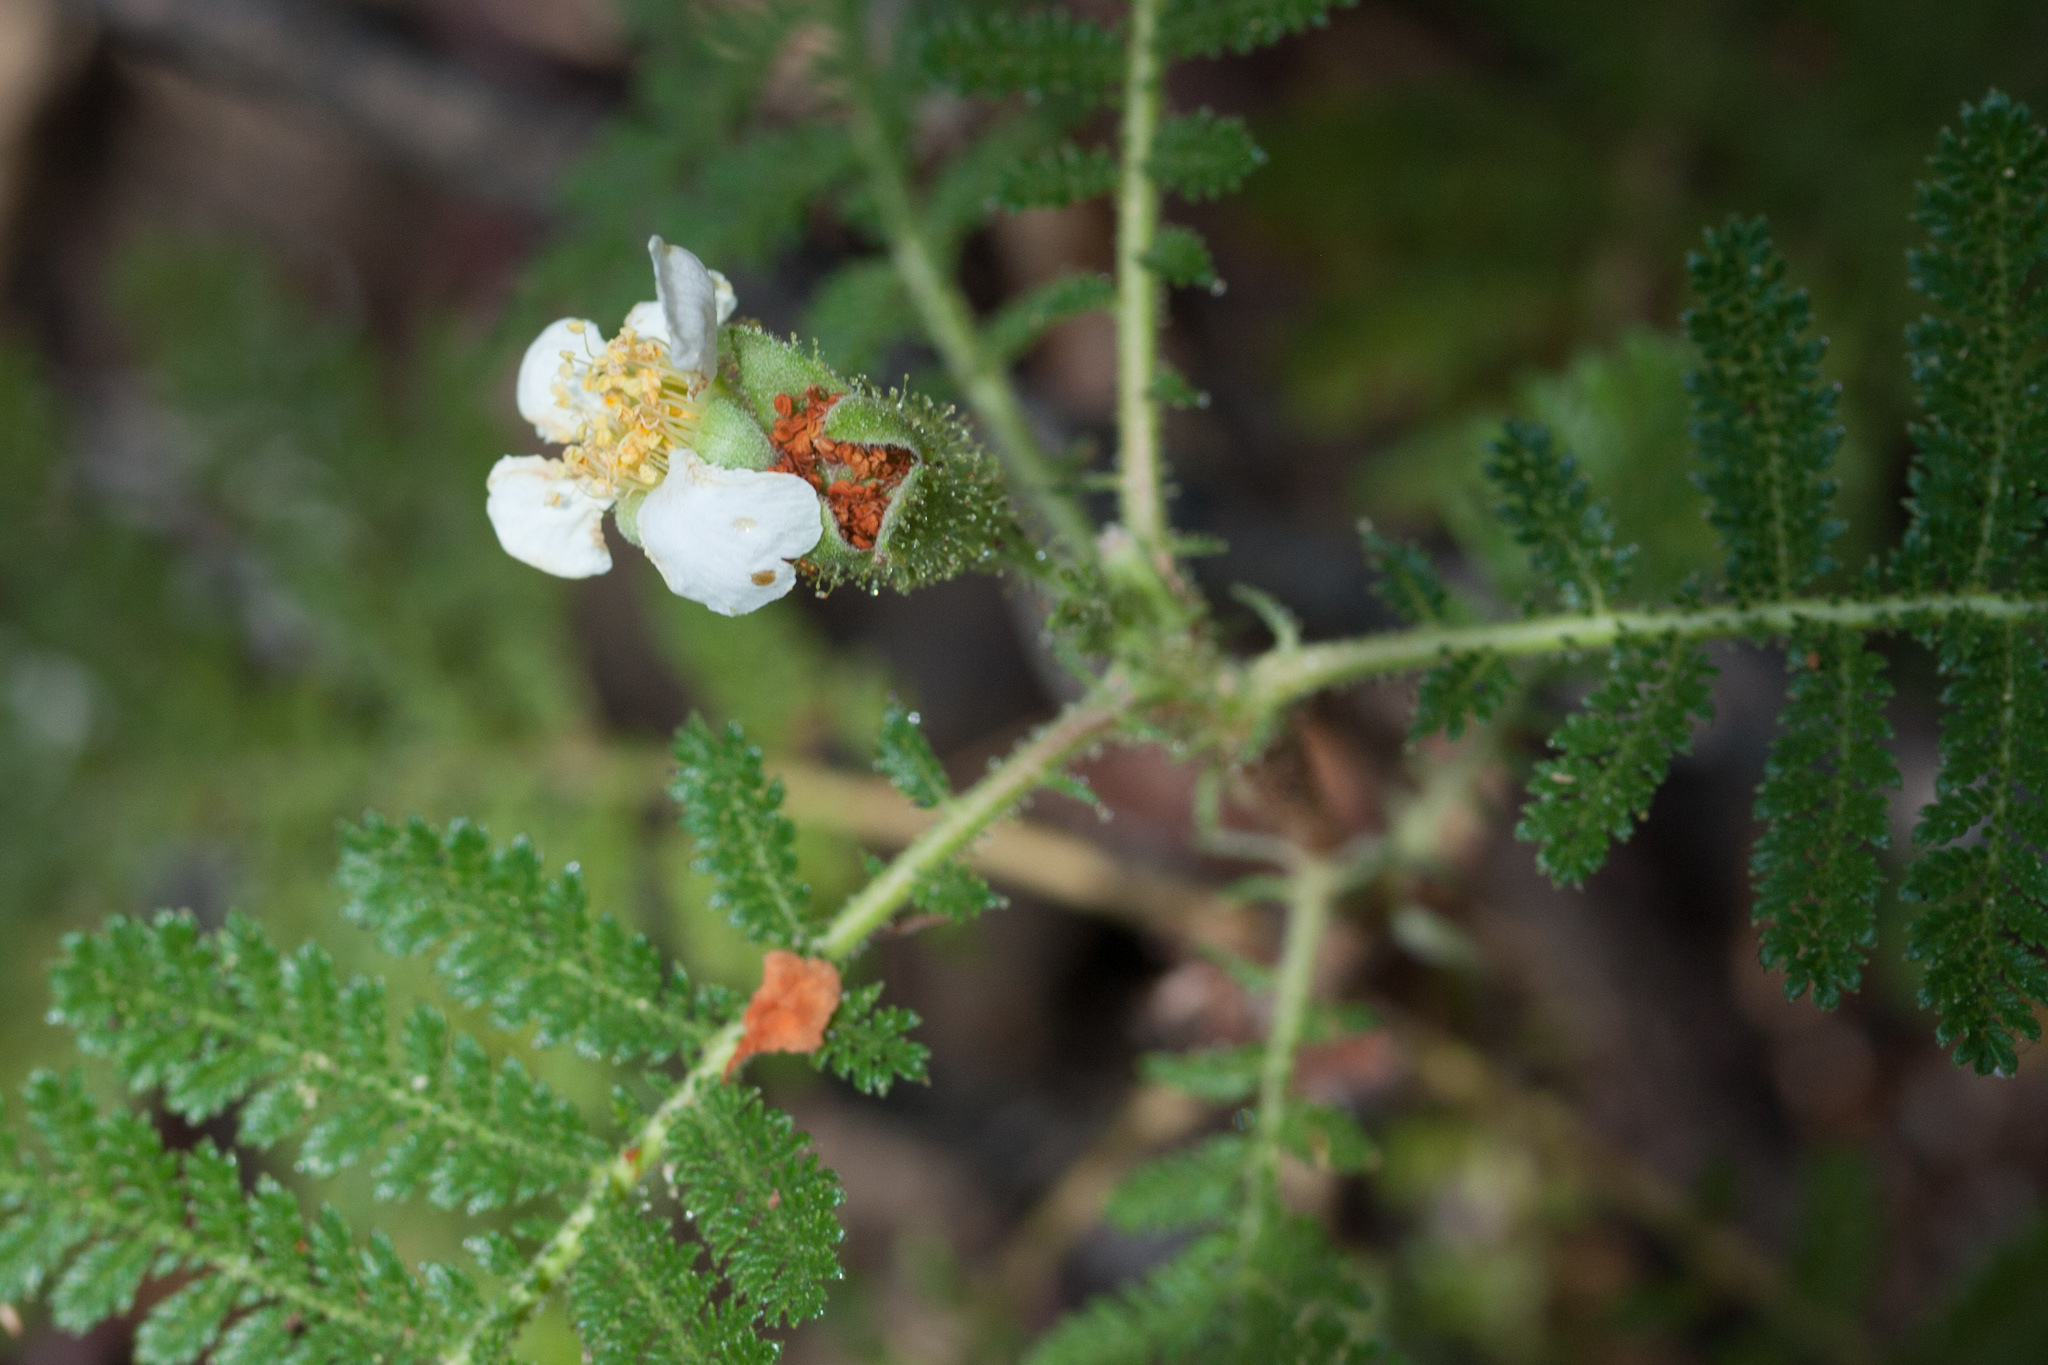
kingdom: Plantae
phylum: Tracheophyta
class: Magnoliopsida
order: Rosales
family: Rosaceae
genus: Chamaebatia
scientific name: Chamaebatia foliolosa
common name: Mountain misery
